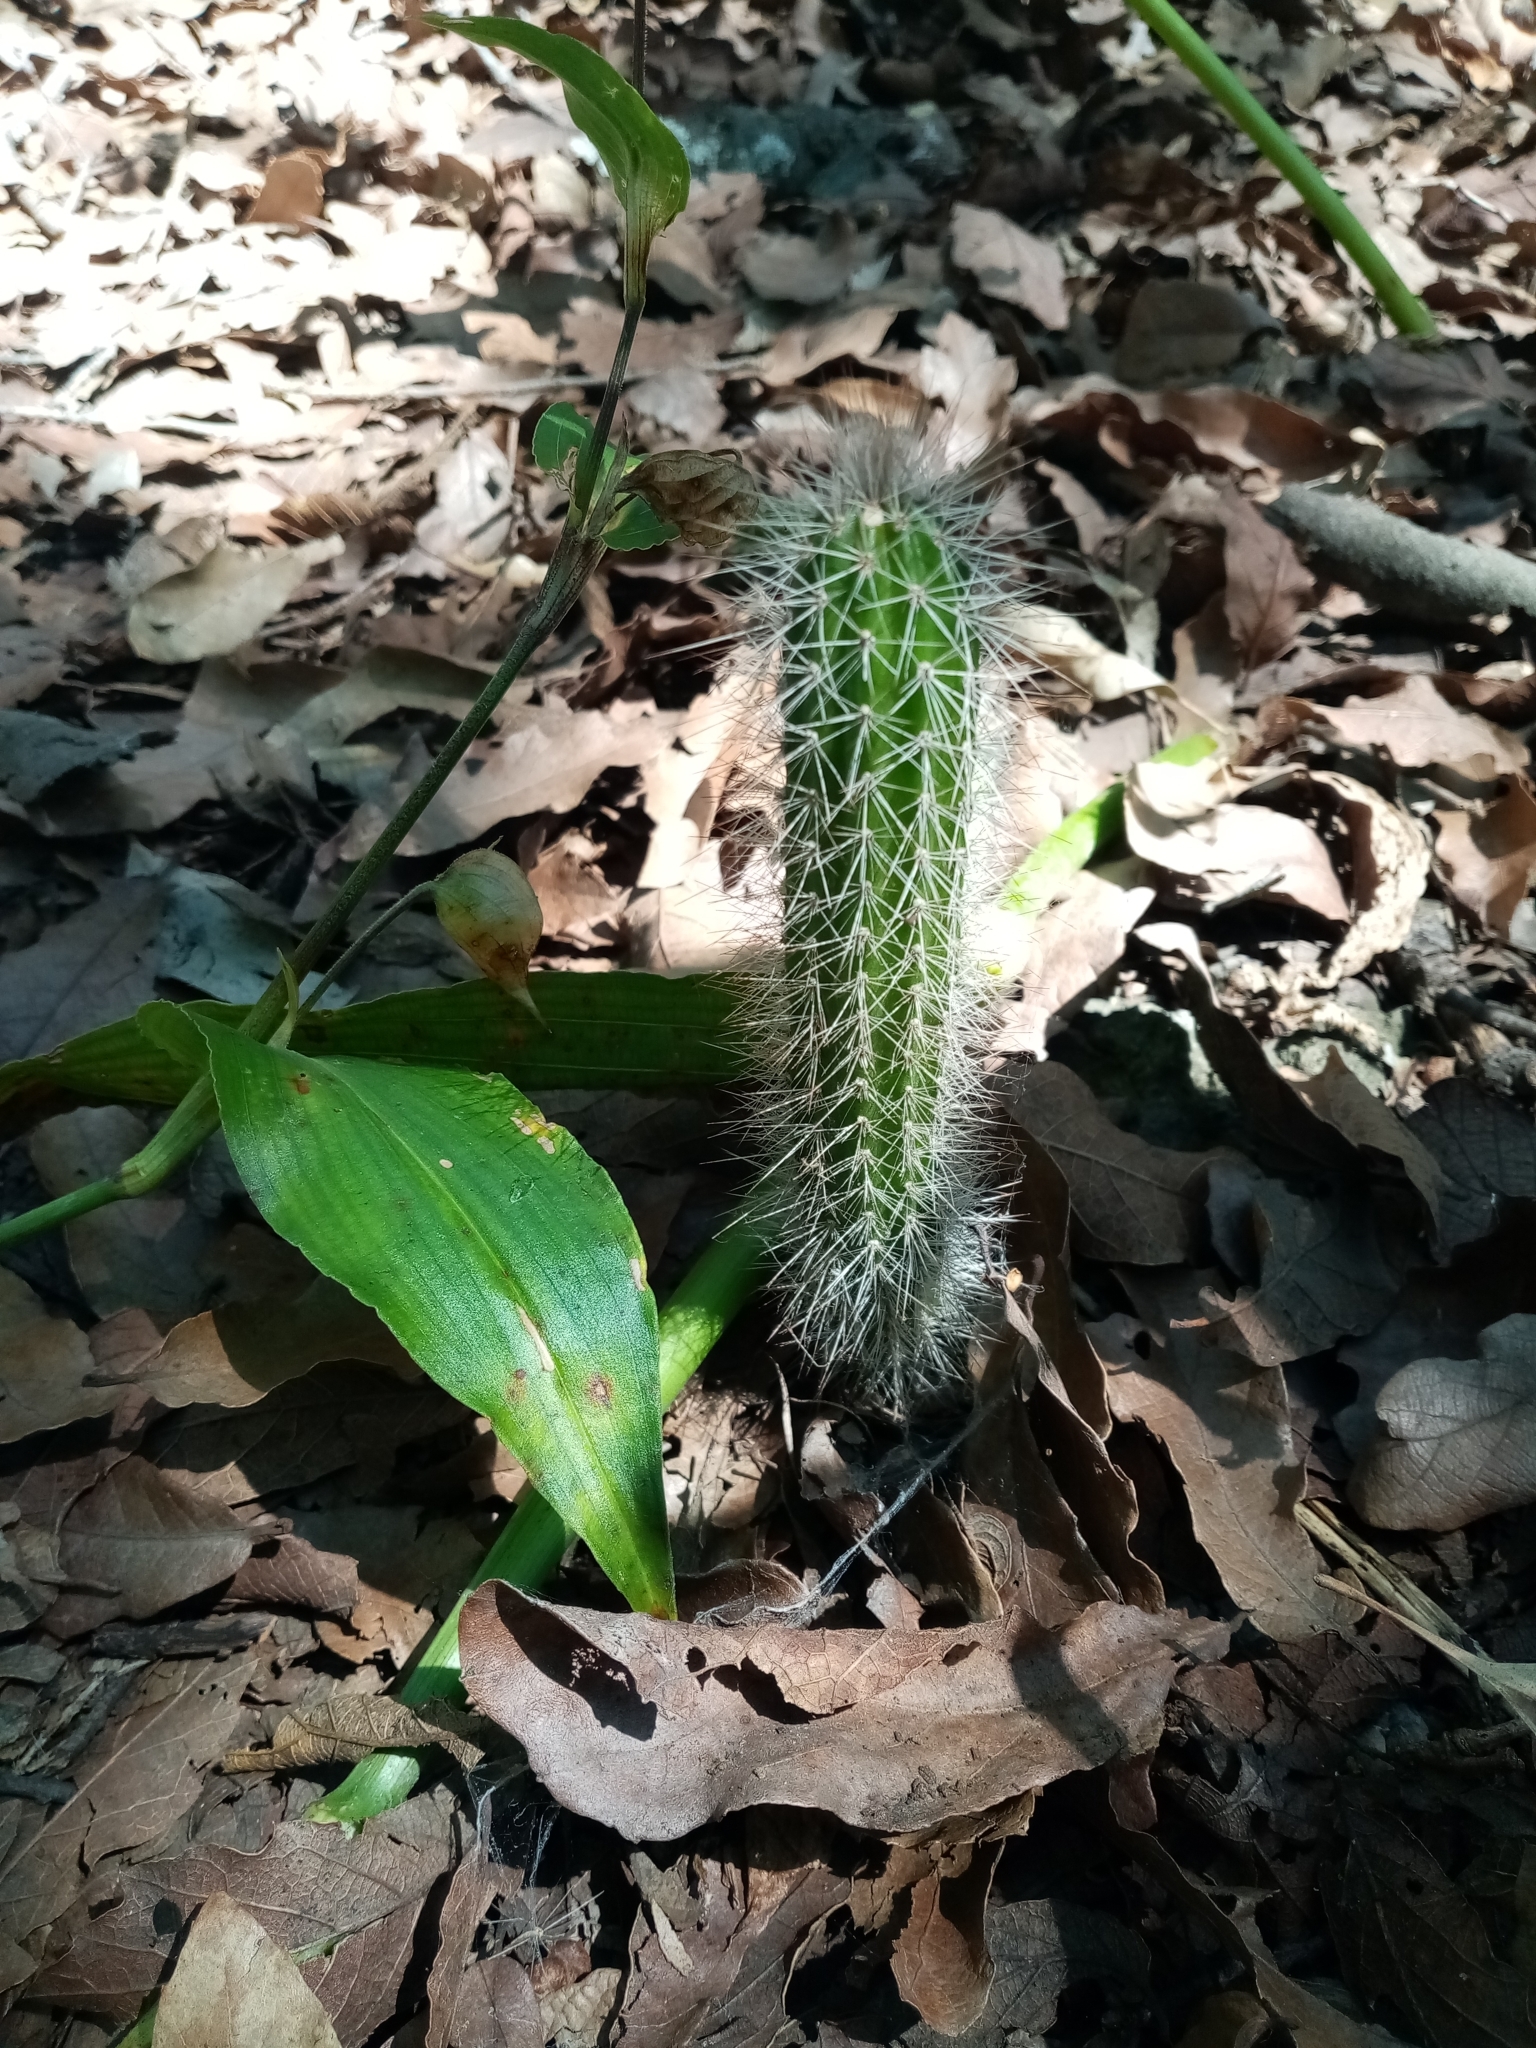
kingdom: Plantae
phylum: Tracheophyta
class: Magnoliopsida
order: Caryophyllales
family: Cactaceae
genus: Peniocereus
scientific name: Peniocereus serpentinus
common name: Serpent cactus
